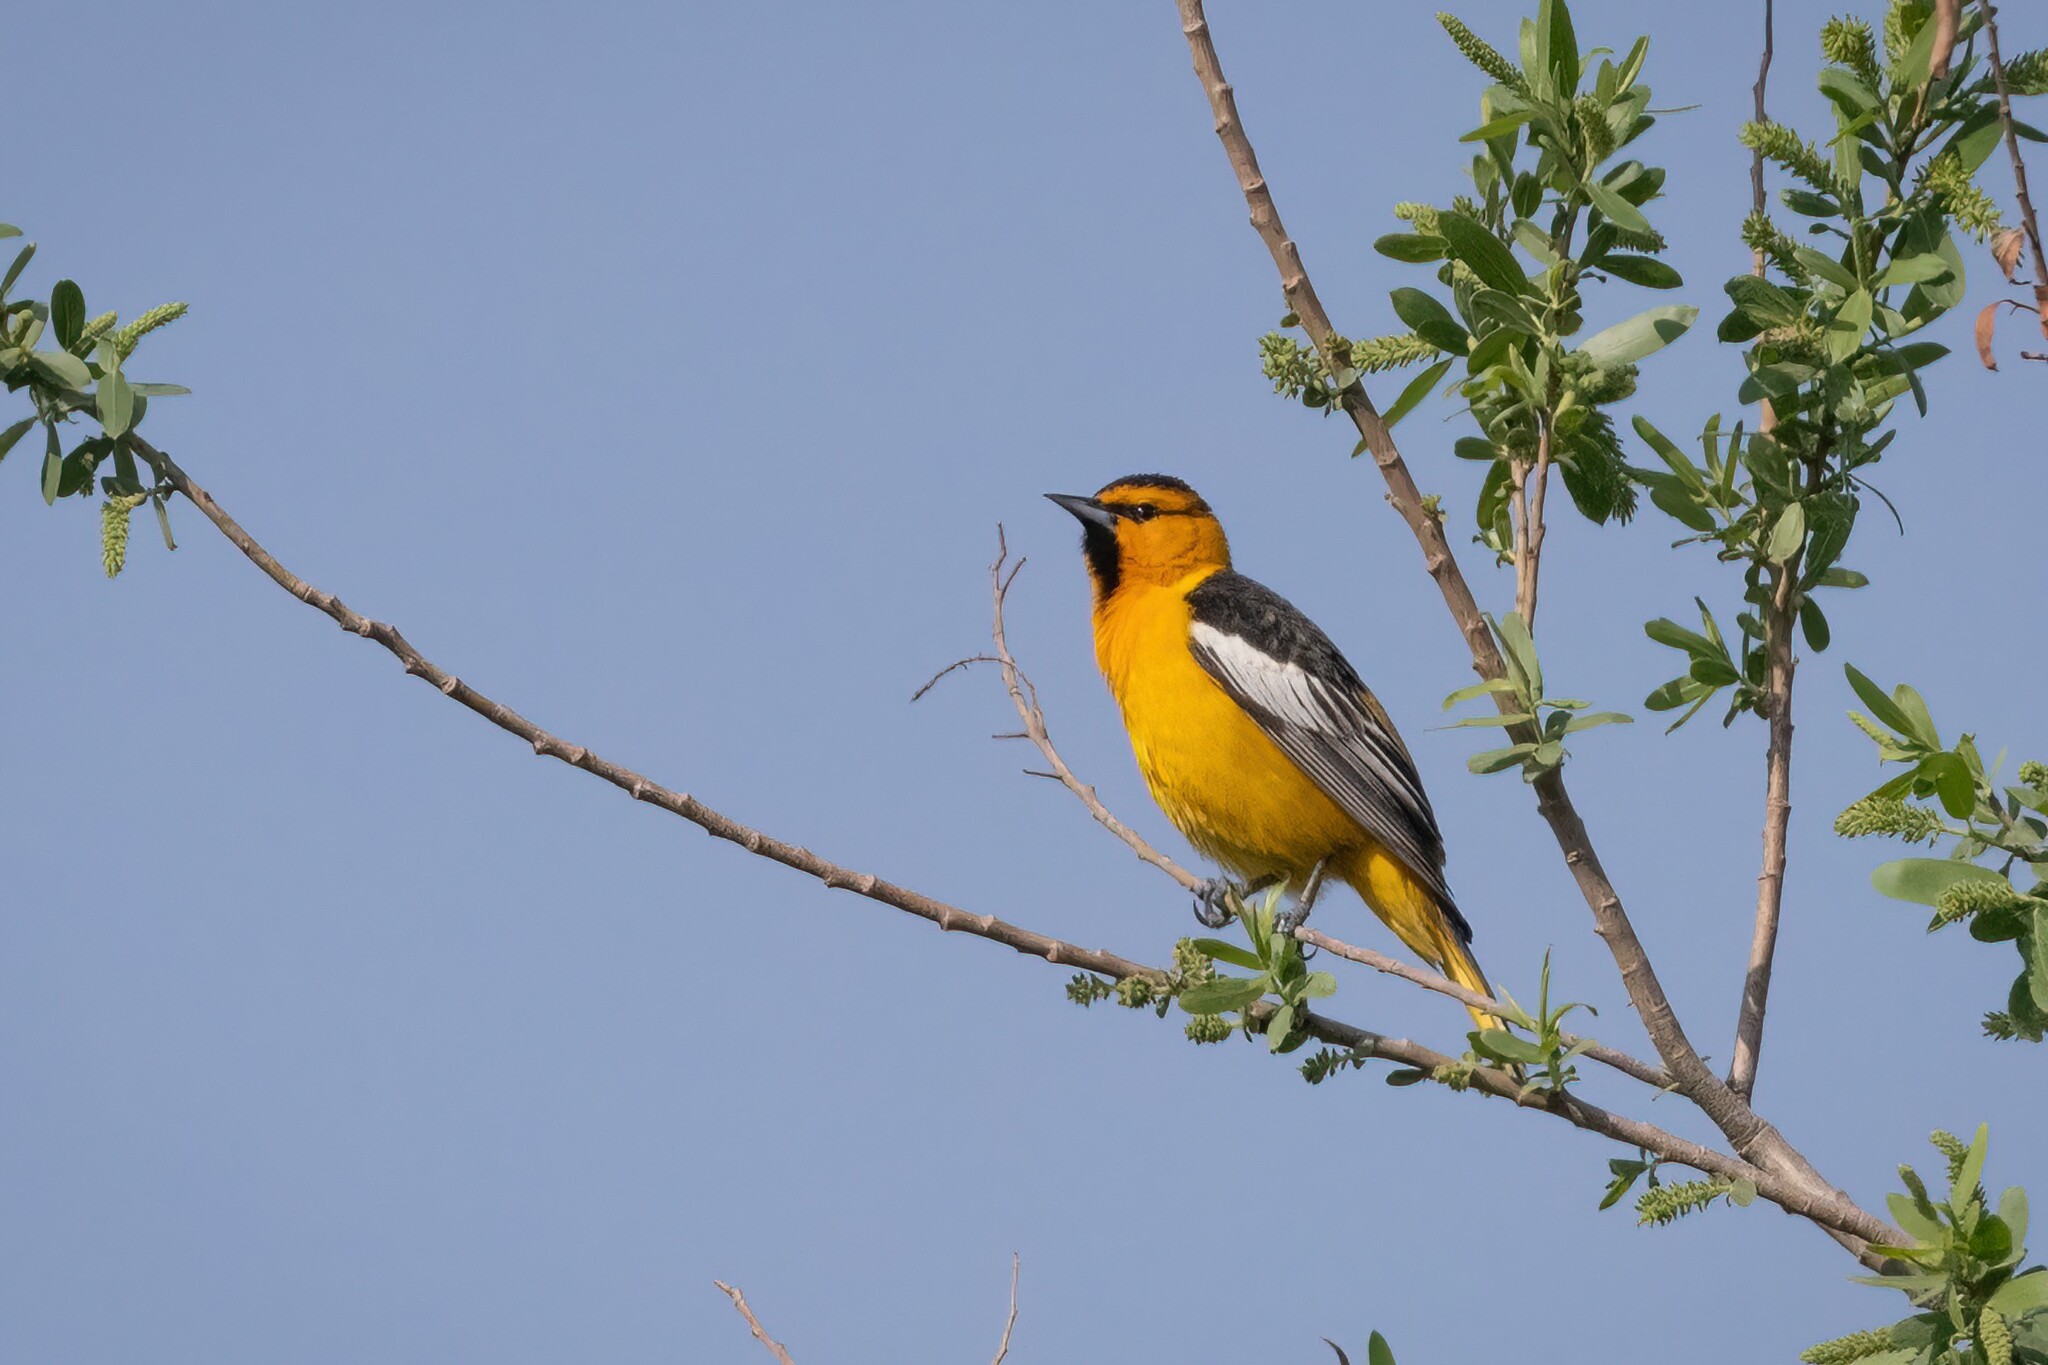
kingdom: Animalia
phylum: Chordata
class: Aves
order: Passeriformes
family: Icteridae
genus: Icterus
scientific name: Icterus bullockii
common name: Bullock's oriole
